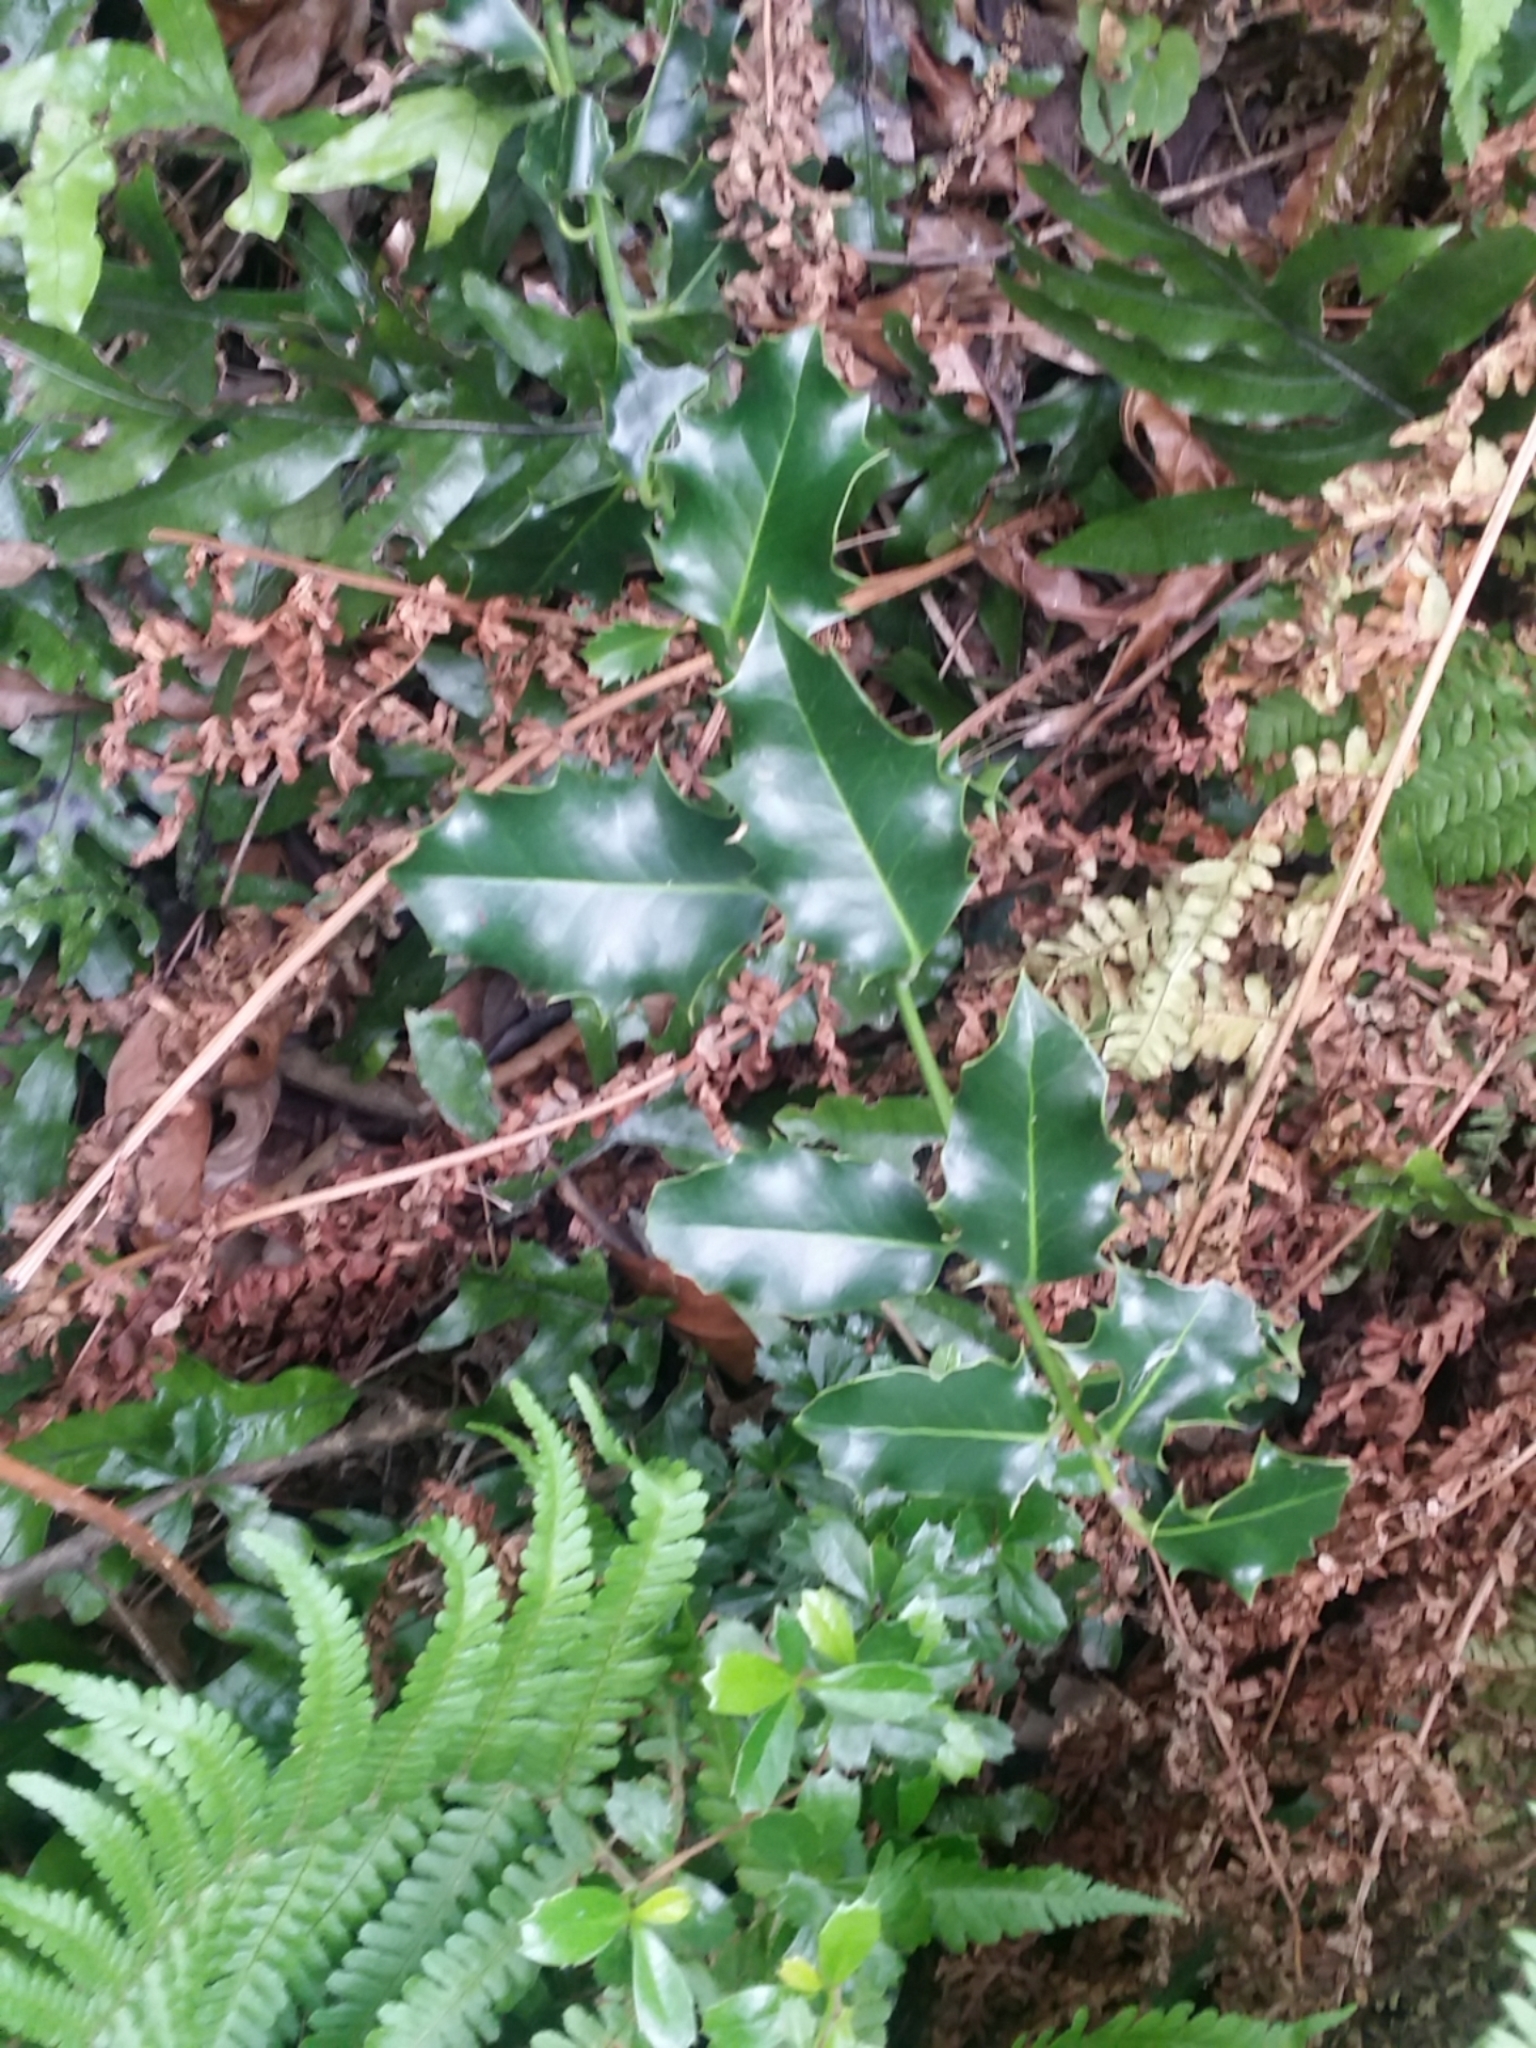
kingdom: Plantae
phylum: Tracheophyta
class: Magnoliopsida
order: Aquifoliales
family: Aquifoliaceae
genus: Ilex
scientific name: Ilex aquifolium
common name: English holly
